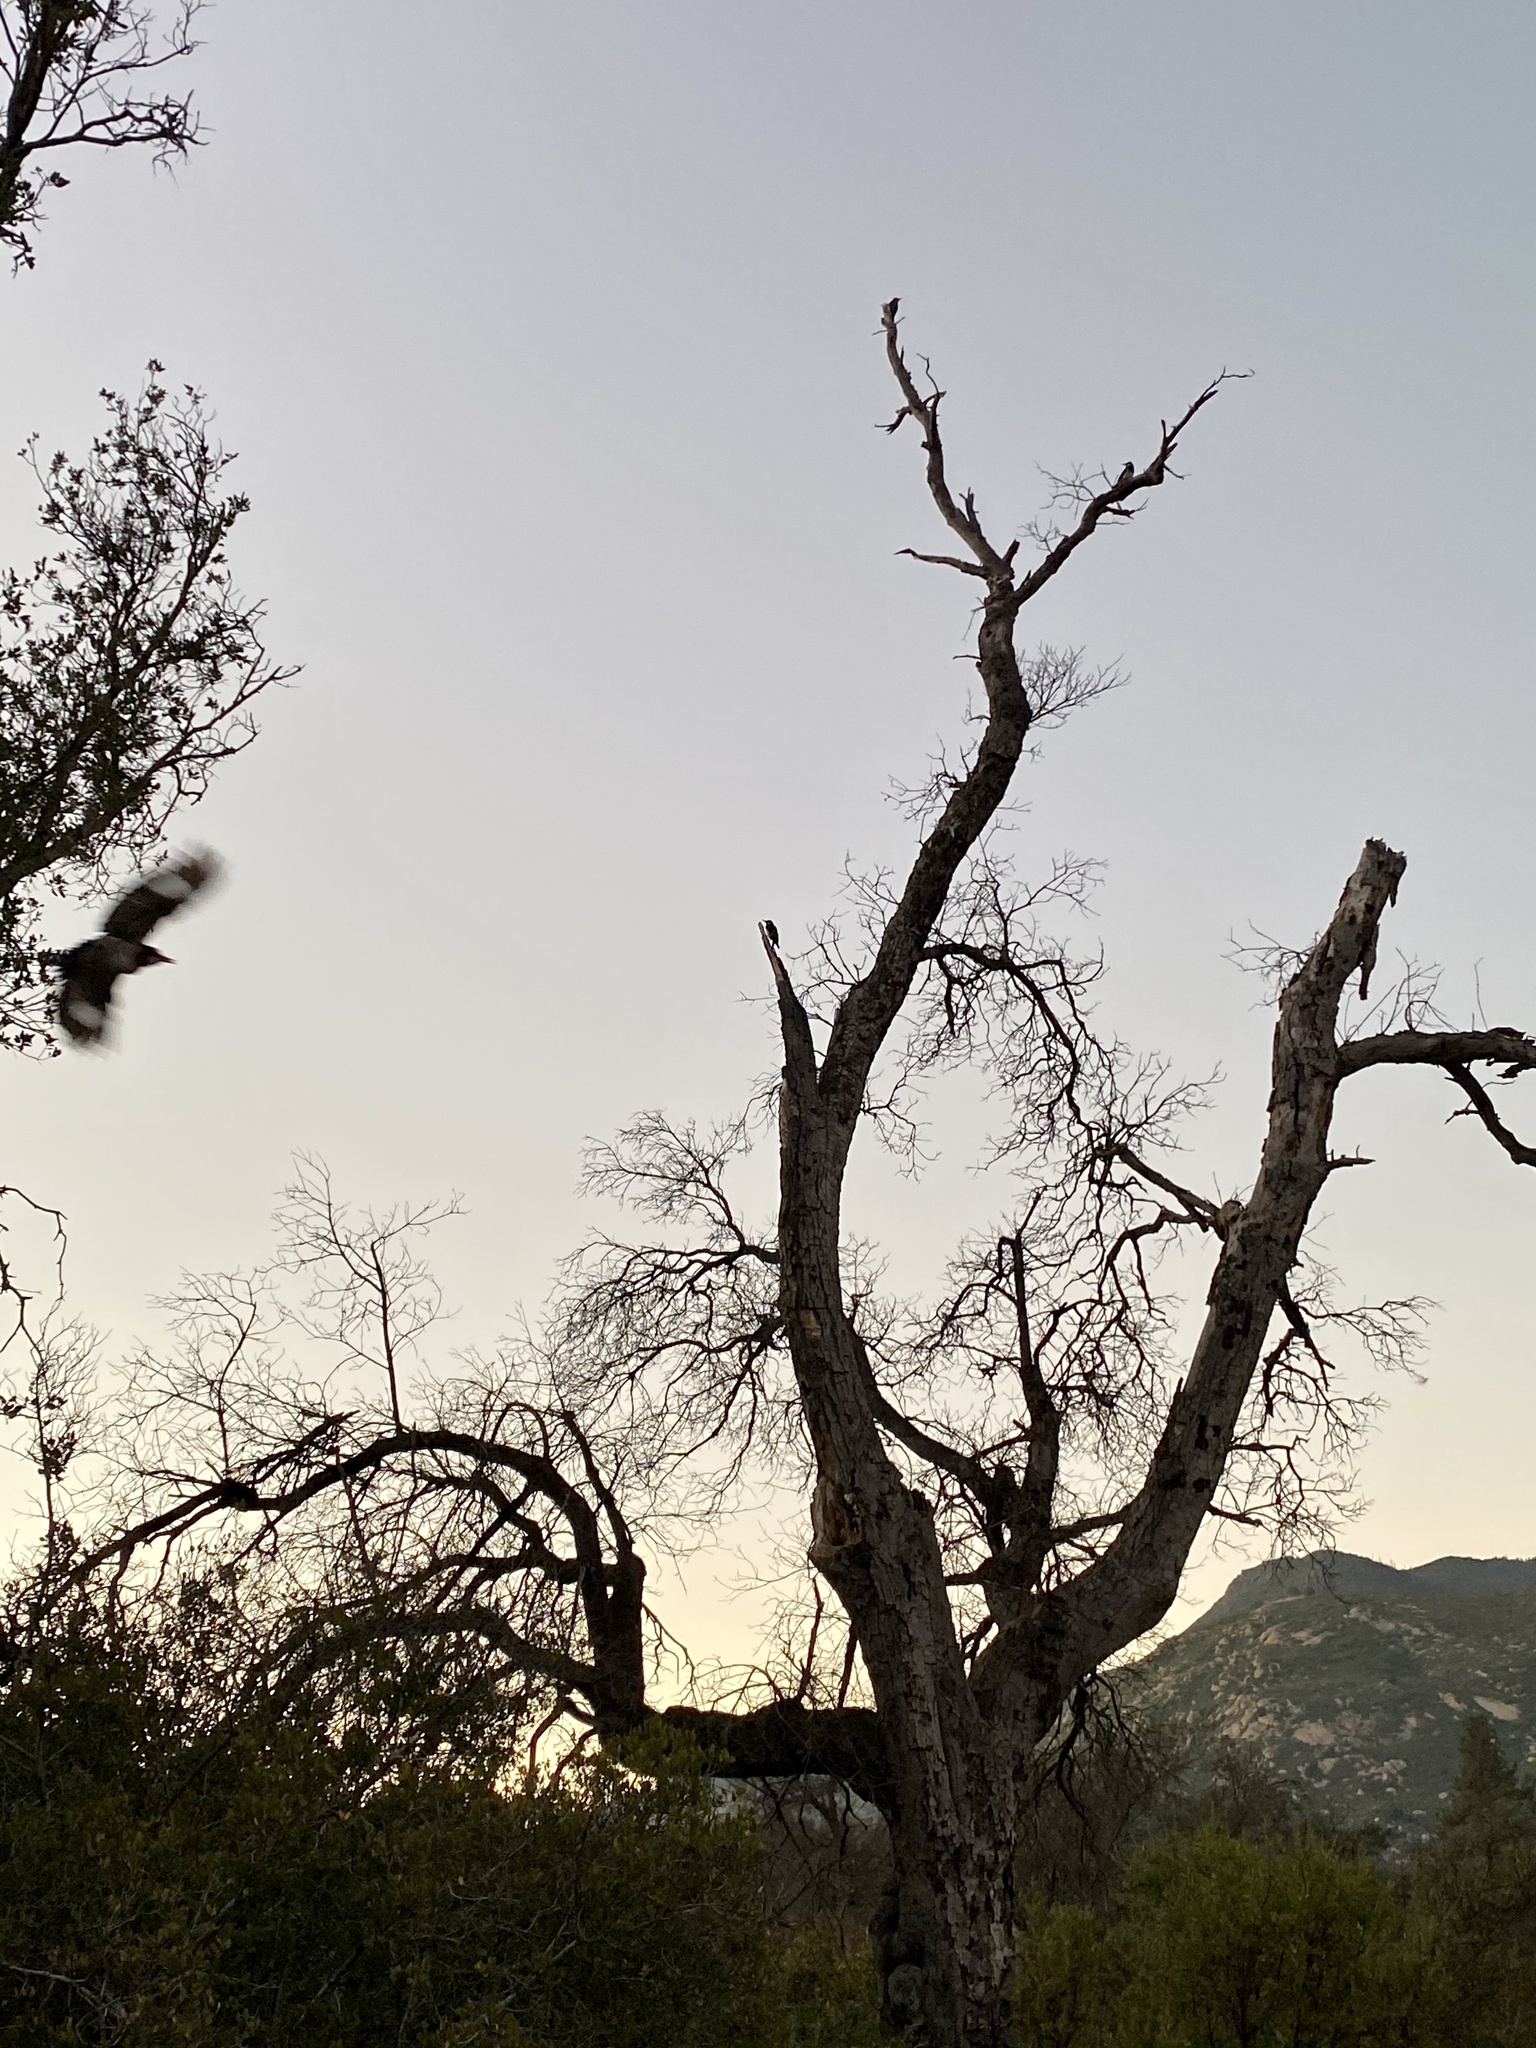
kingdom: Animalia
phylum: Chordata
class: Aves
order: Piciformes
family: Picidae
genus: Melanerpes
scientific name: Melanerpes formicivorus
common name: Acorn woodpecker
